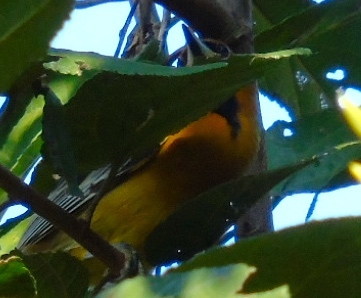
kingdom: Animalia
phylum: Chordata
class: Aves
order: Passeriformes
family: Icteridae
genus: Icterus
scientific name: Icterus pustulatus
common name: Streak-backed oriole
